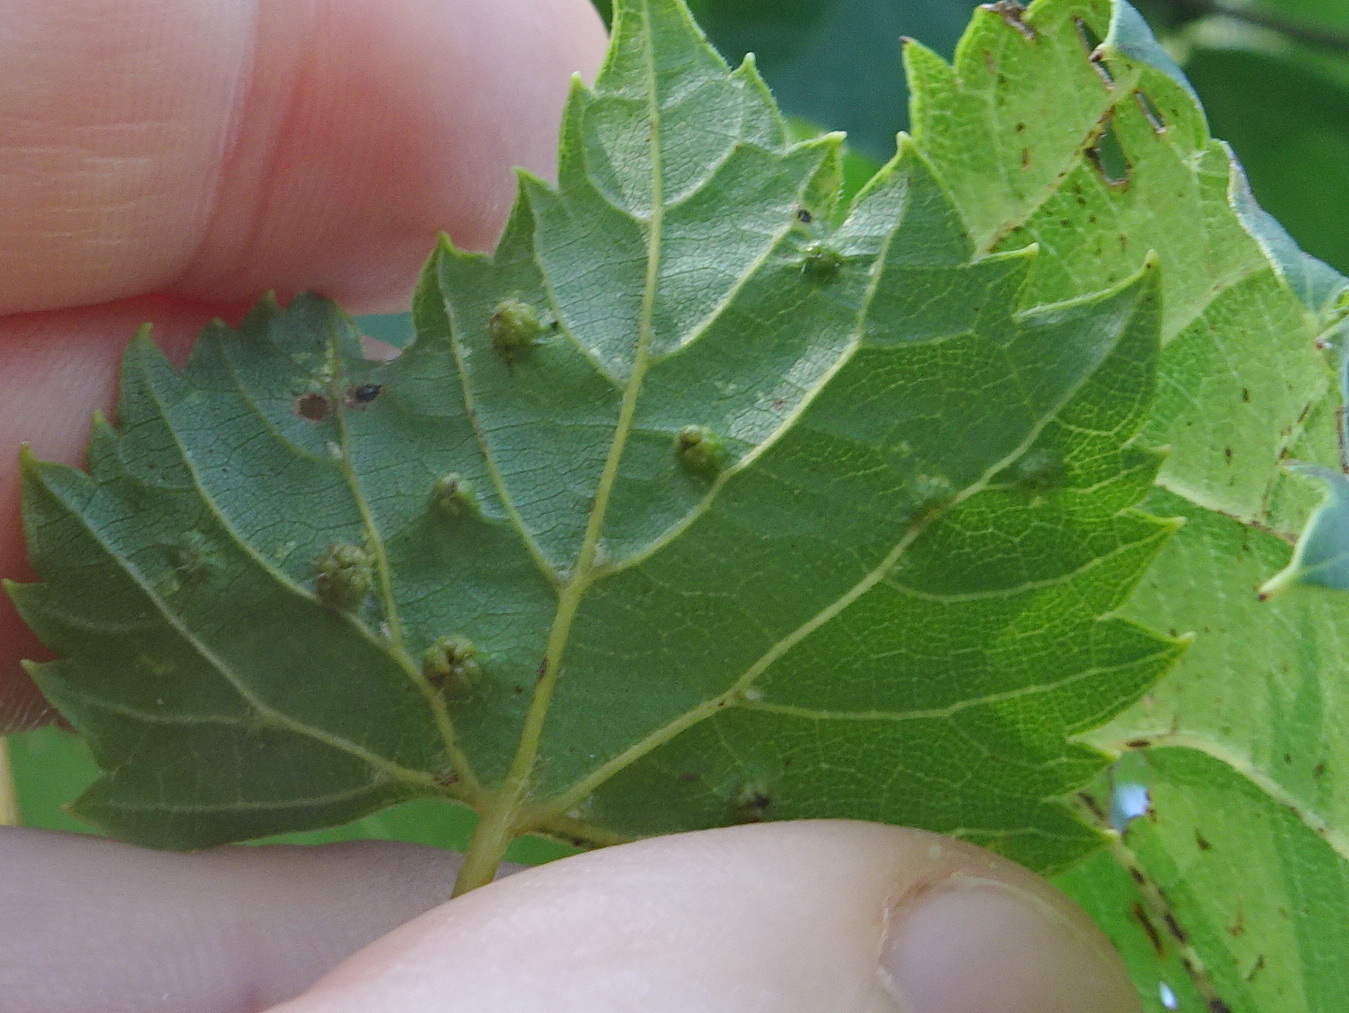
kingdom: Animalia
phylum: Arthropoda
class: Insecta
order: Hemiptera
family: Phylloxeridae
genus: Daktulosphaira
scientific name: Daktulosphaira vitifoliae
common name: Grape phylloxera
